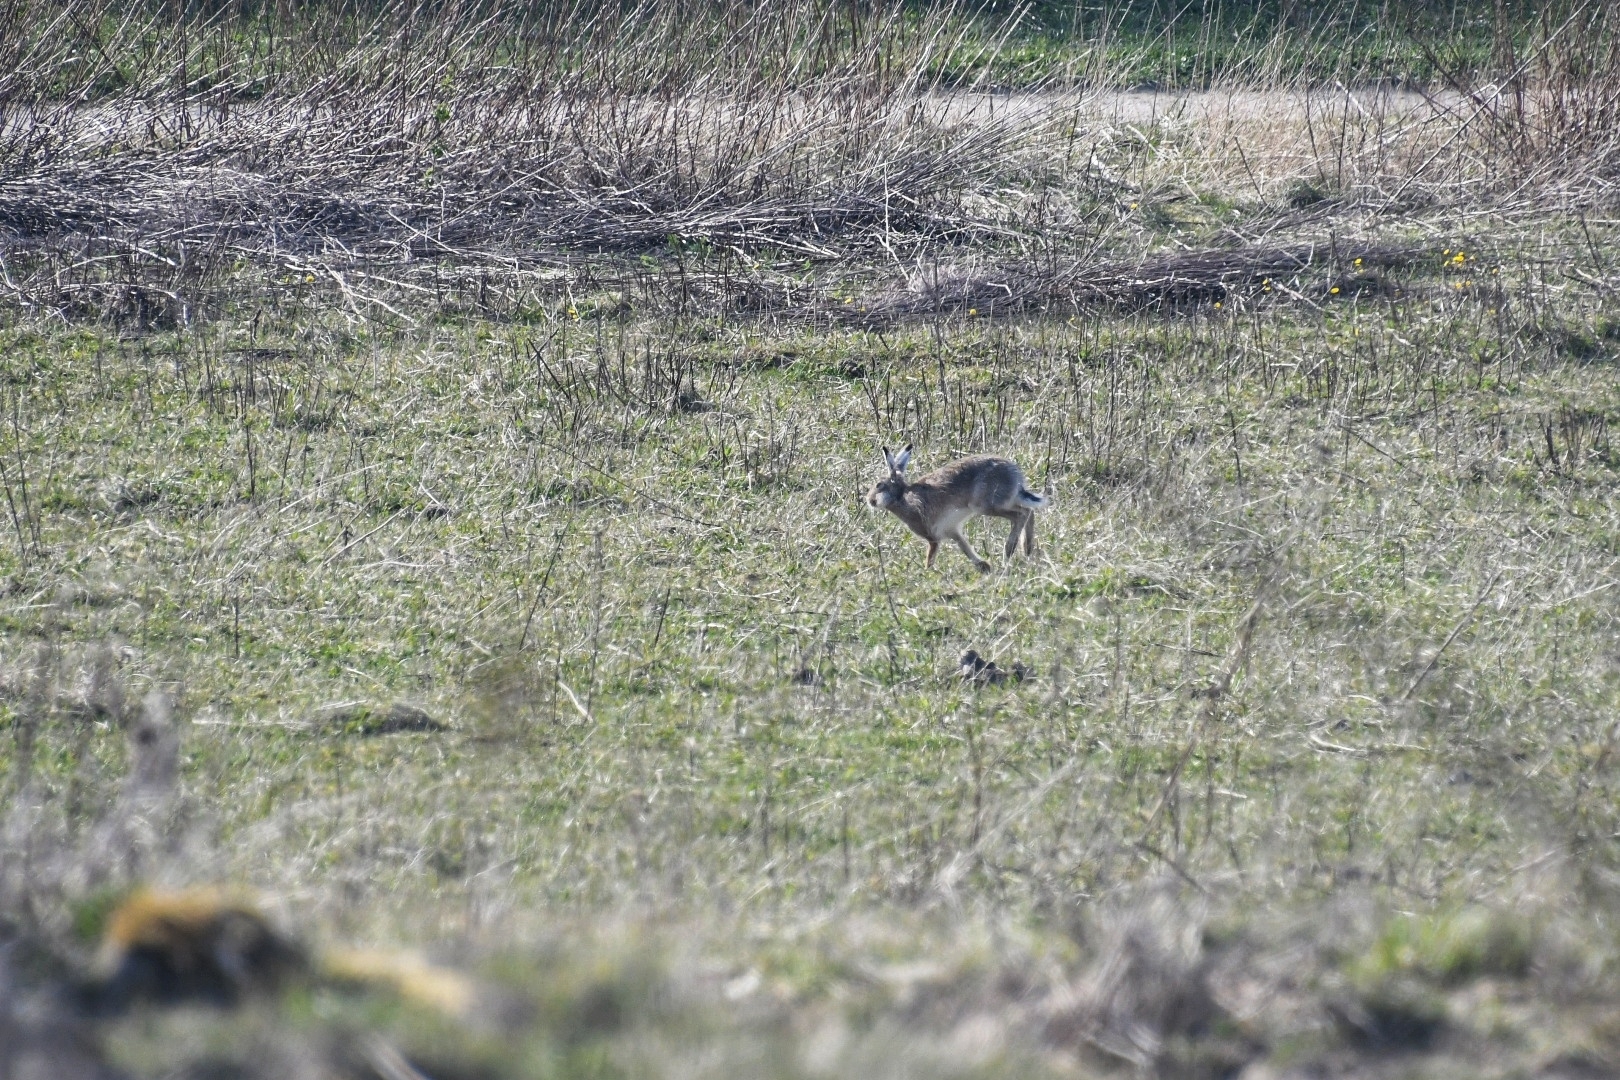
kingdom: Animalia
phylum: Chordata
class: Mammalia
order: Lagomorpha
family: Leporidae
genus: Lepus
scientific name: Lepus europaeus
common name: European hare
